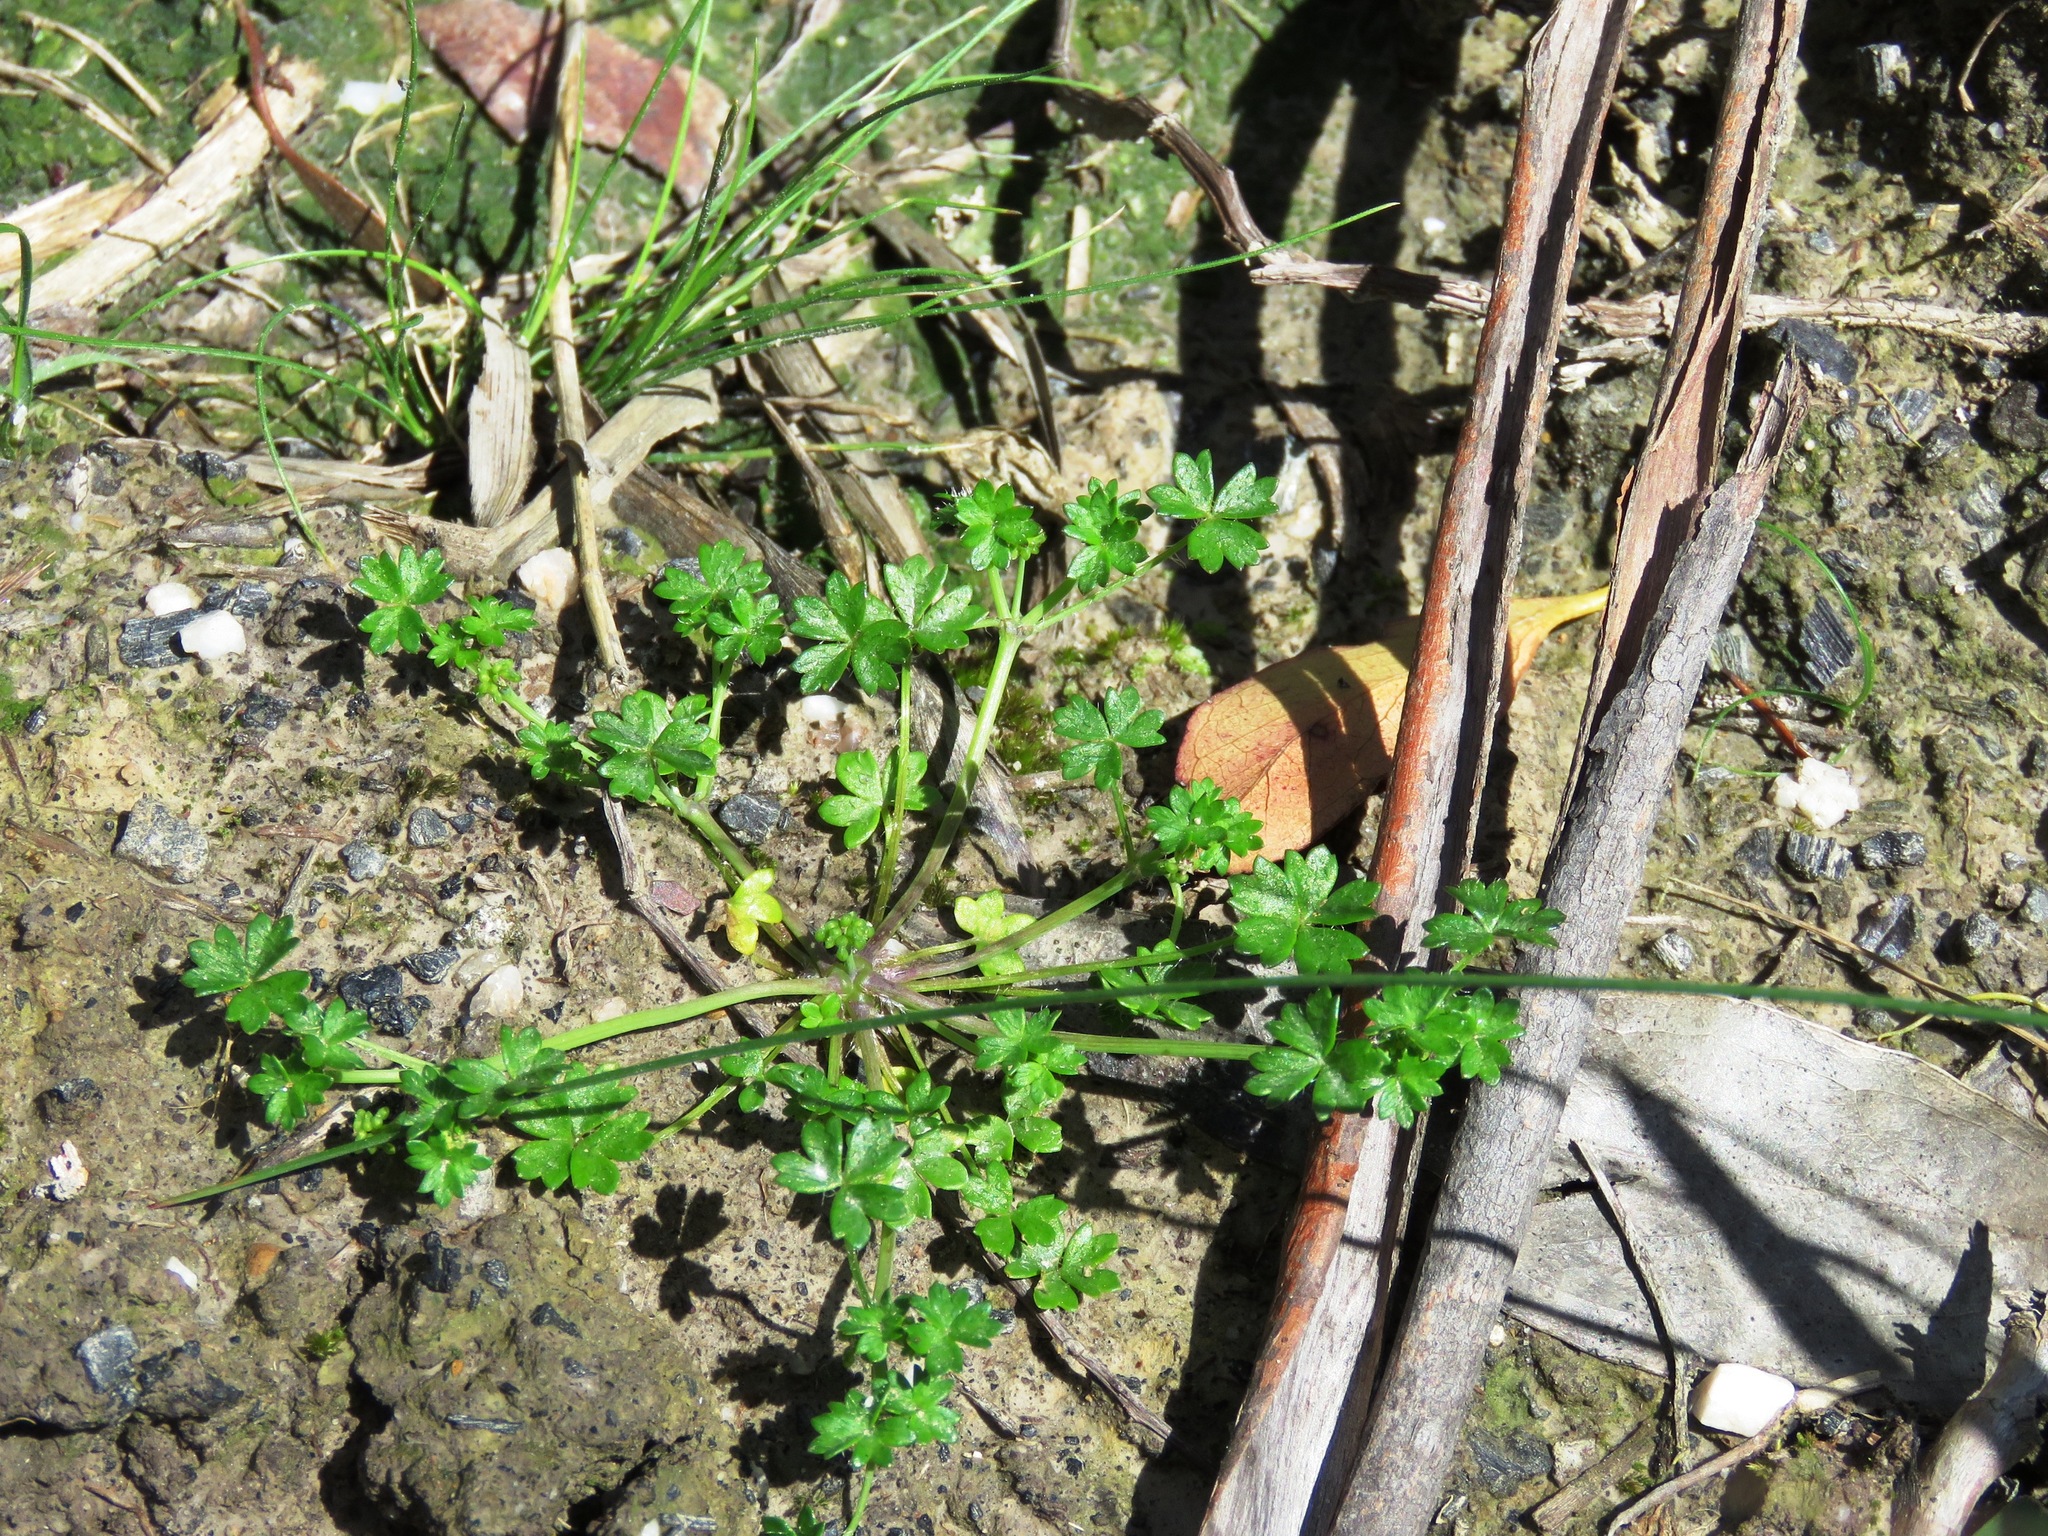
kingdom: Plantae
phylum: Tracheophyta
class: Magnoliopsida
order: Apiales
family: Araliaceae
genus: Hydrocotyle
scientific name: Hydrocotyle foveolata
